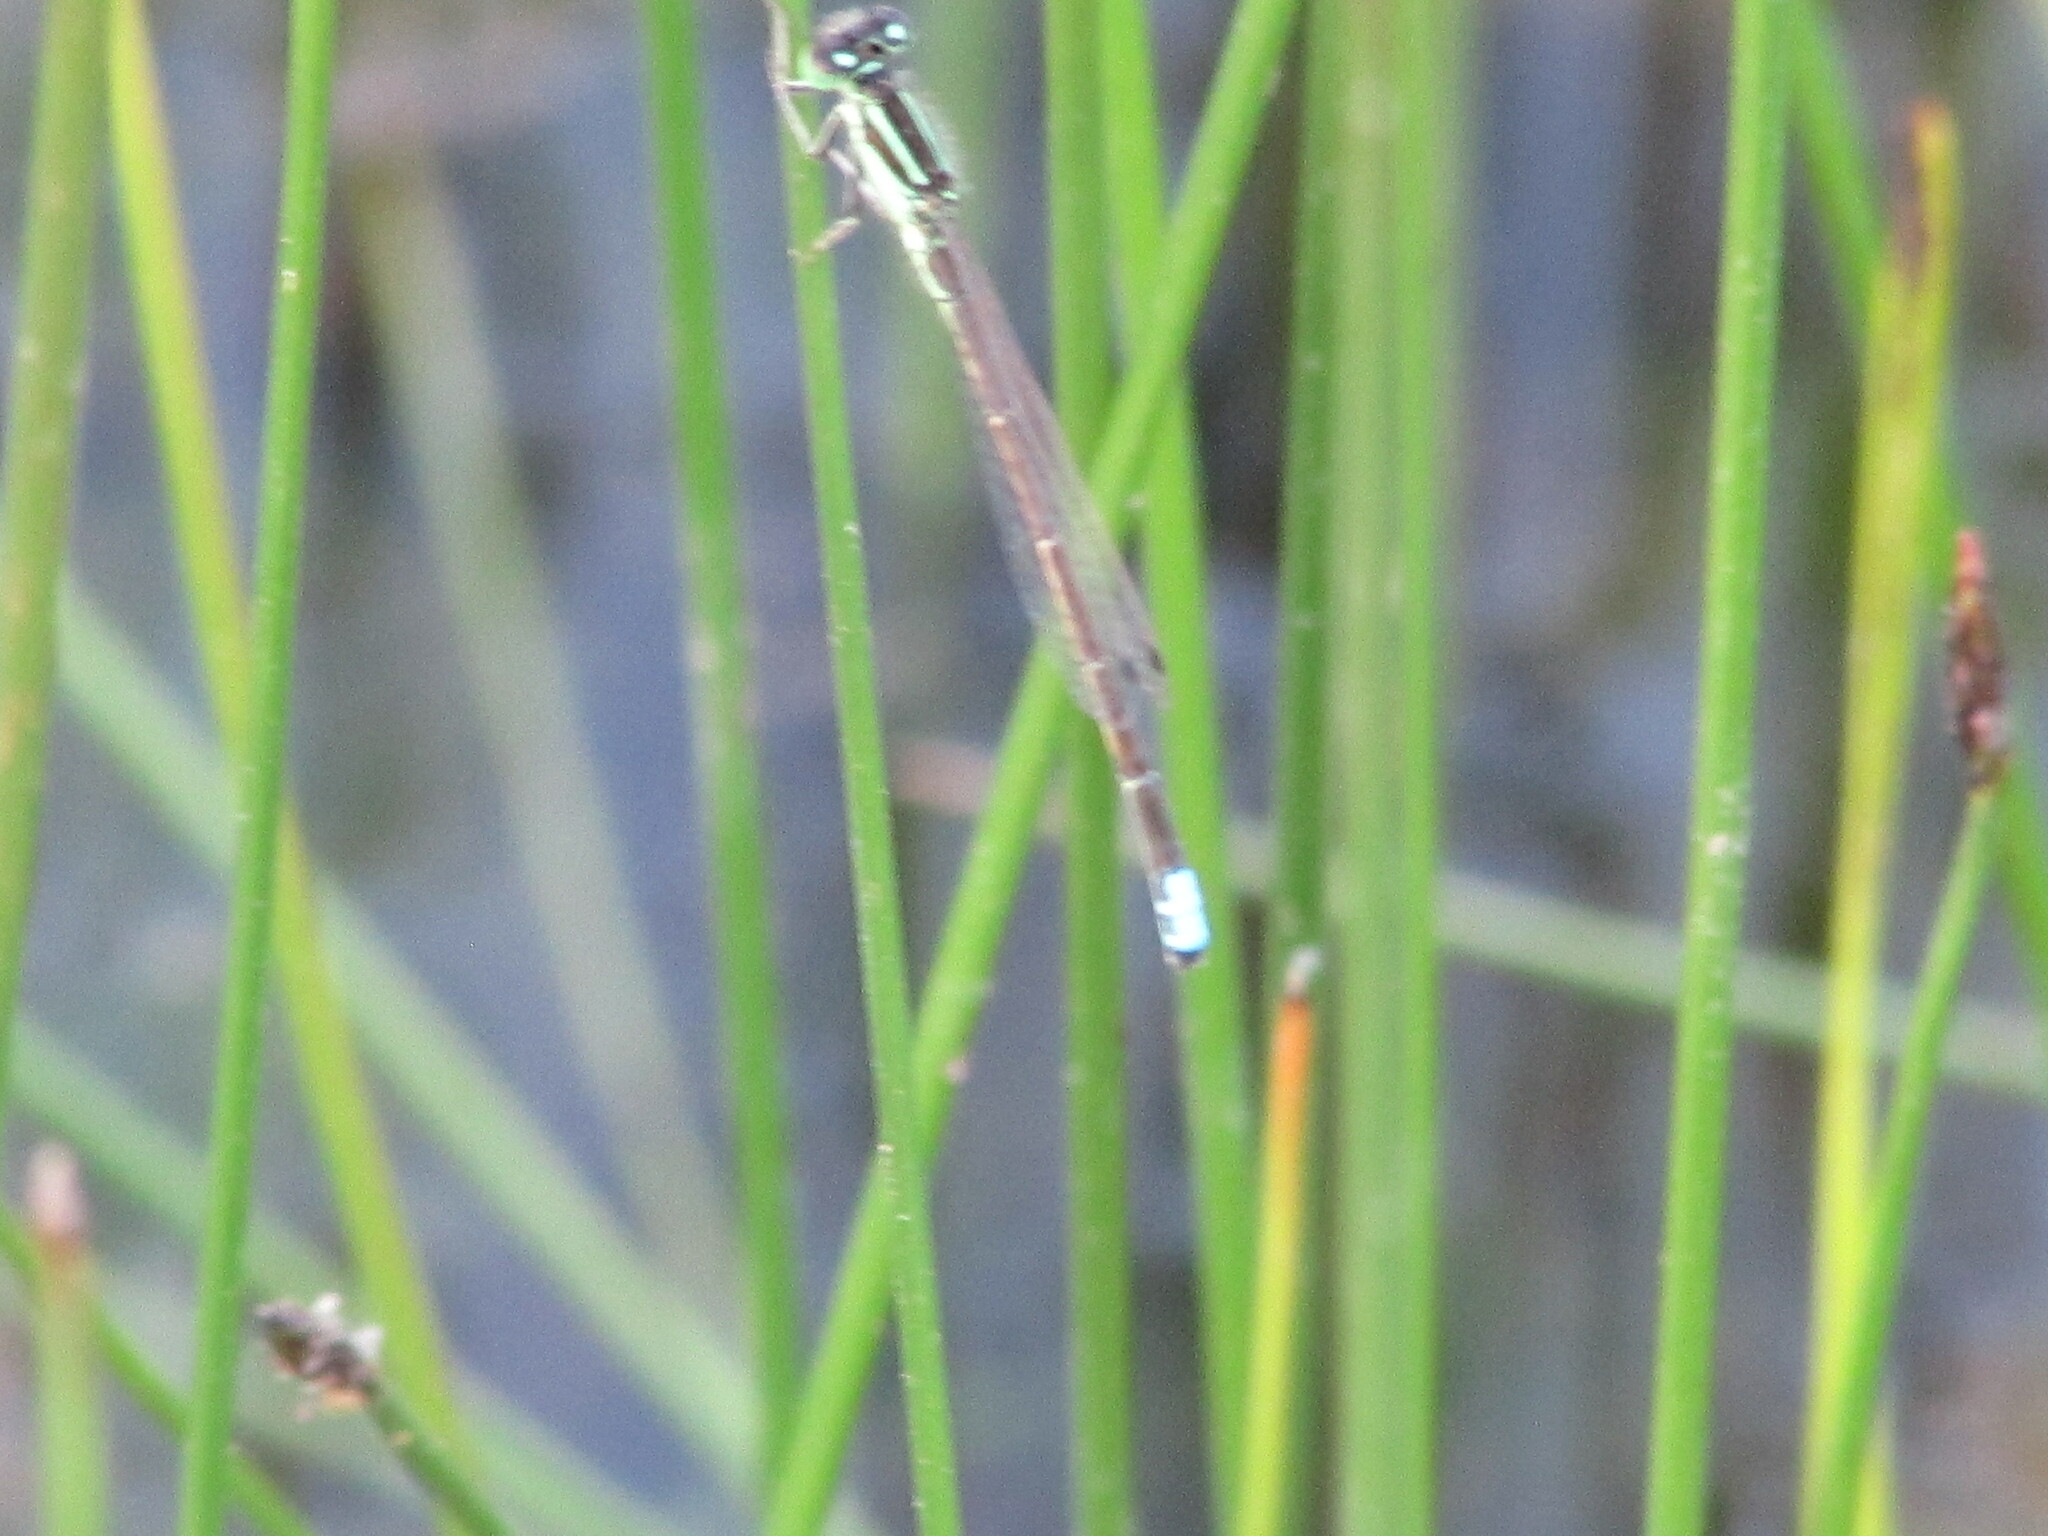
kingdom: Animalia
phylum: Arthropoda
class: Insecta
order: Odonata
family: Coenagrionidae
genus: Ischnura
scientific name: Ischnura verticalis
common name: Eastern forktail
